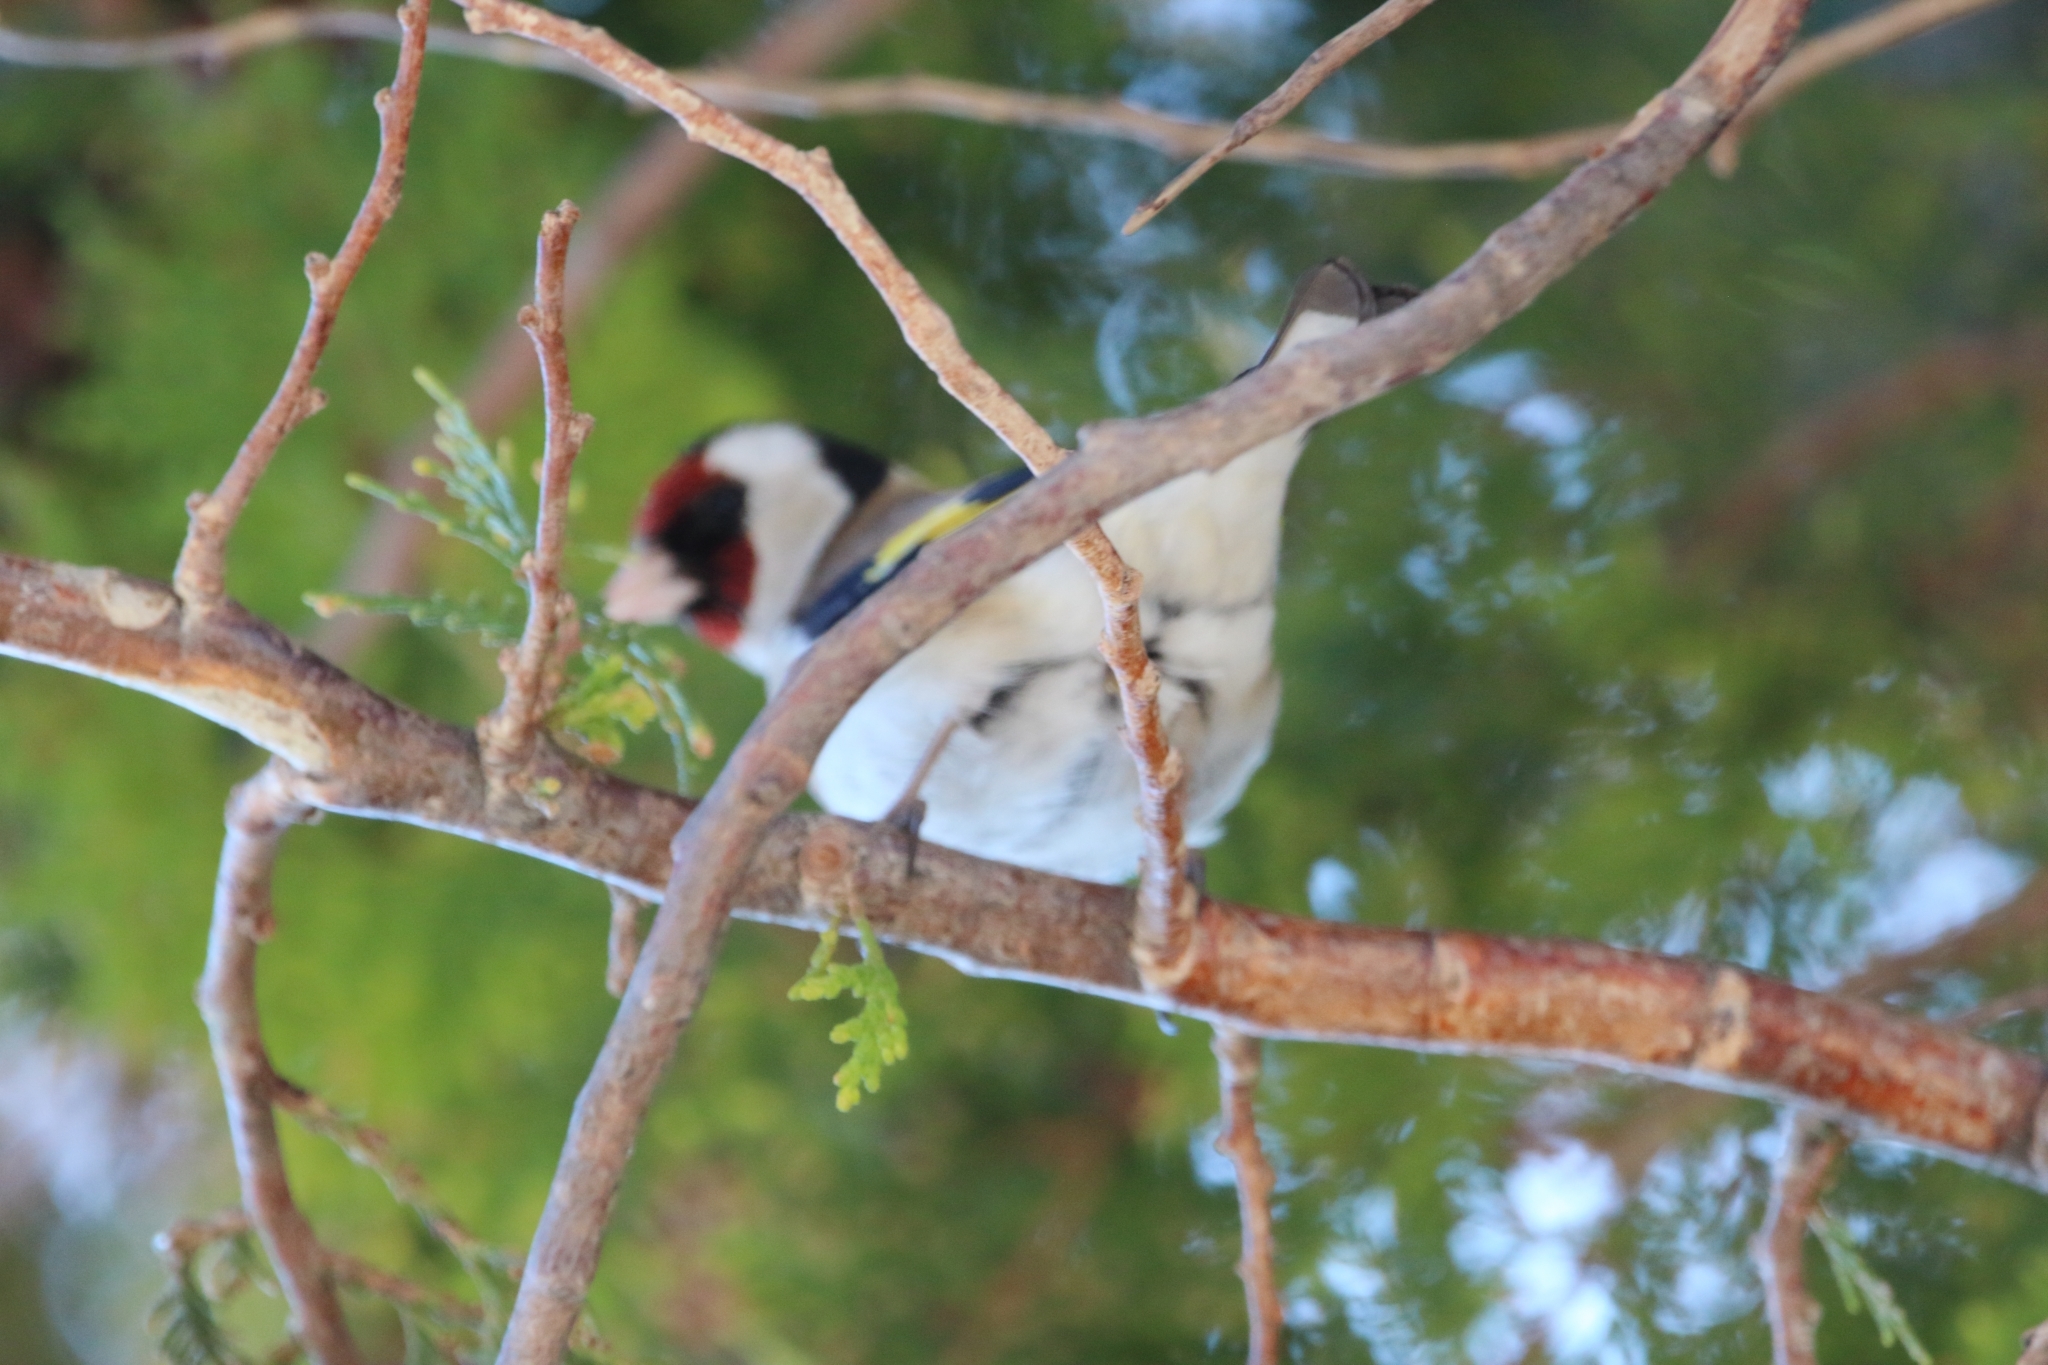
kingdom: Animalia
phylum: Chordata
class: Aves
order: Passeriformes
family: Fringillidae
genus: Carduelis
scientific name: Carduelis carduelis
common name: European goldfinch
